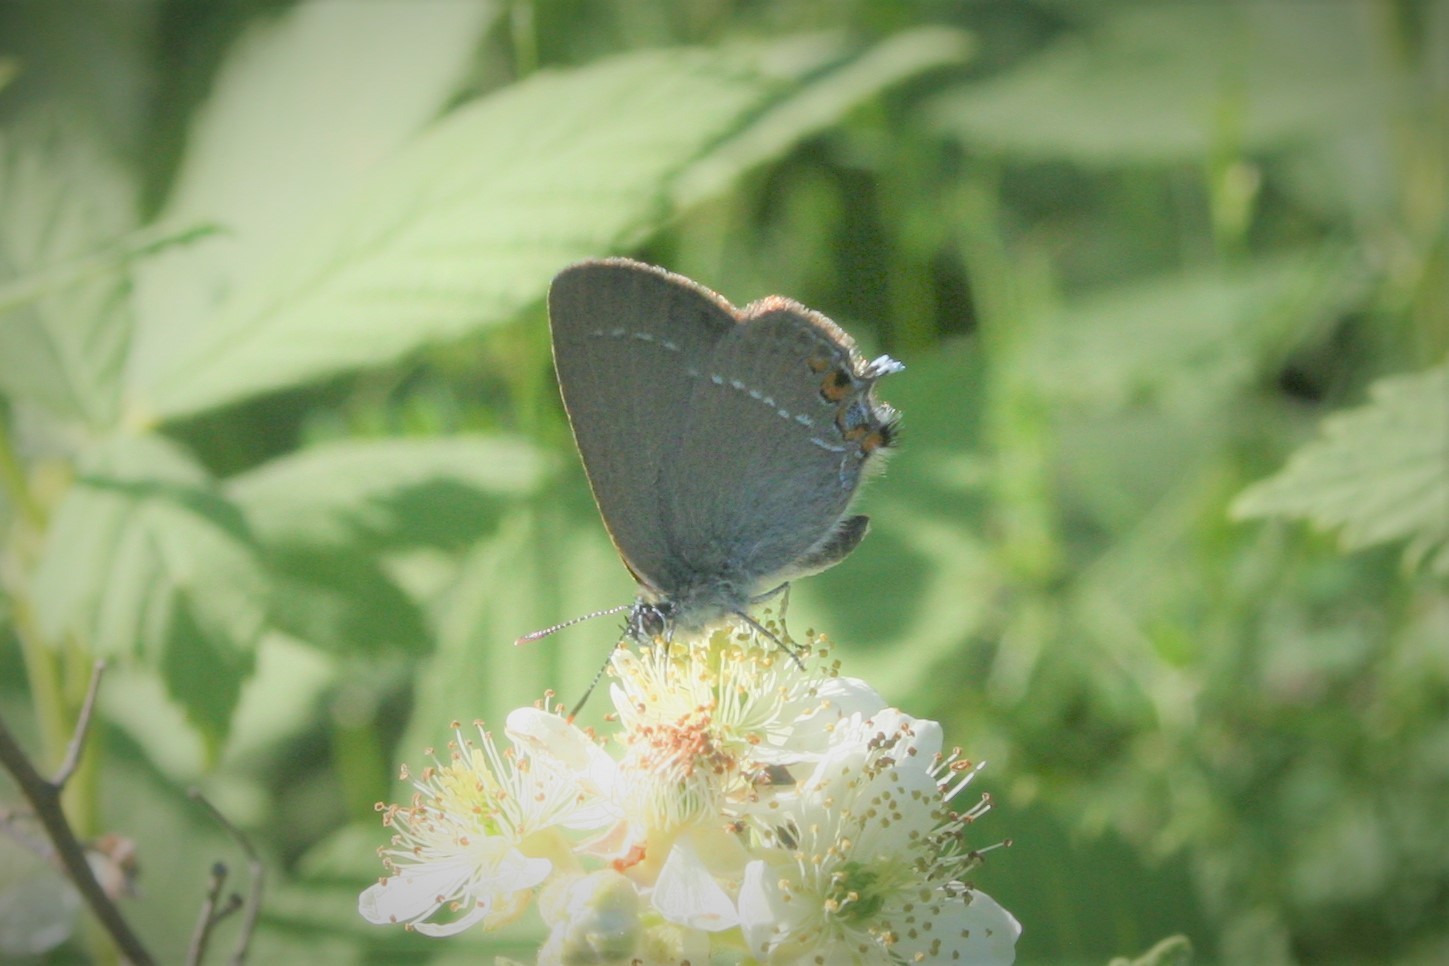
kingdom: Animalia
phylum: Arthropoda
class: Insecta
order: Lepidoptera
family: Lycaenidae
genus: Strymon
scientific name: Strymon acaciae
